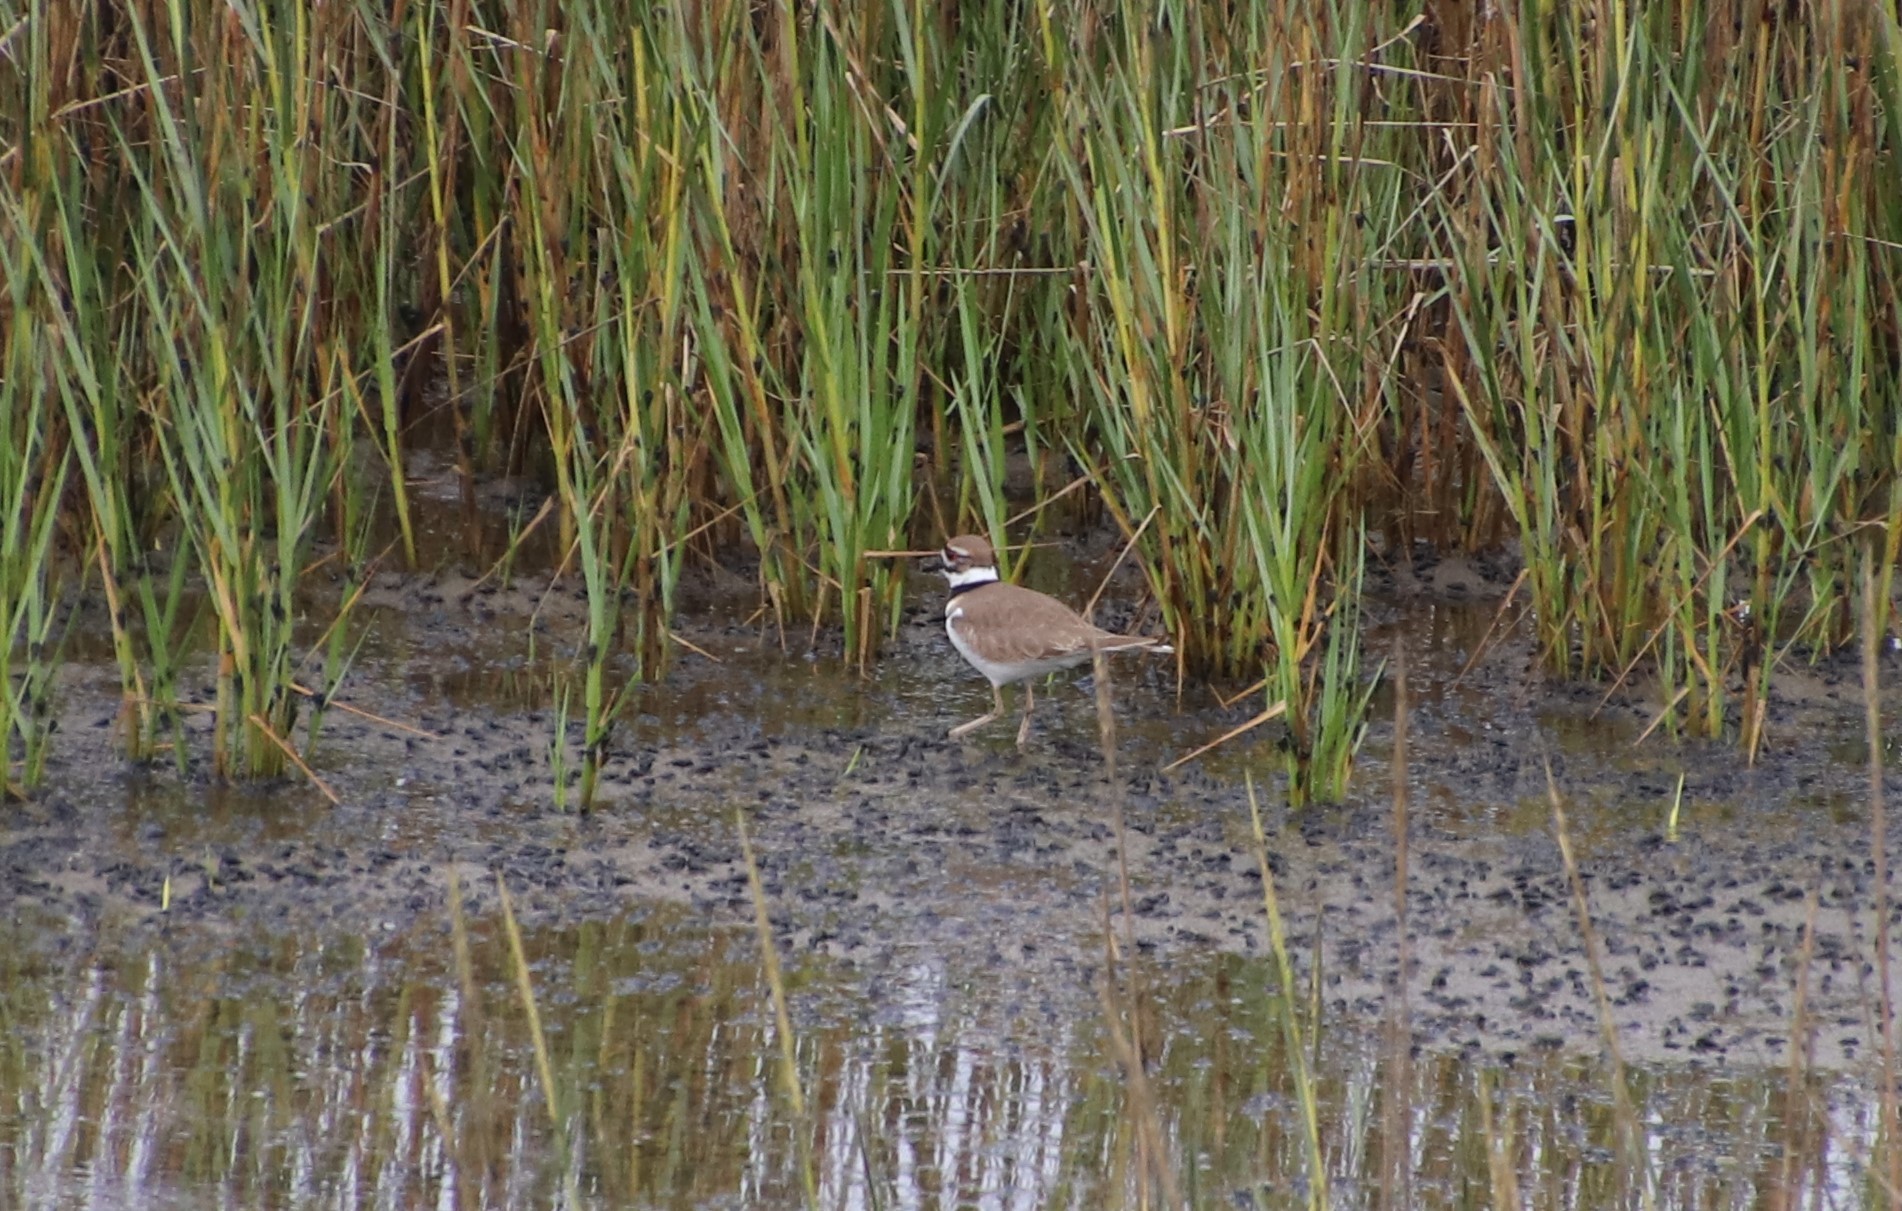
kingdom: Animalia
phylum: Chordata
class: Aves
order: Charadriiformes
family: Charadriidae
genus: Charadrius
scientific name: Charadrius vociferus
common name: Killdeer
